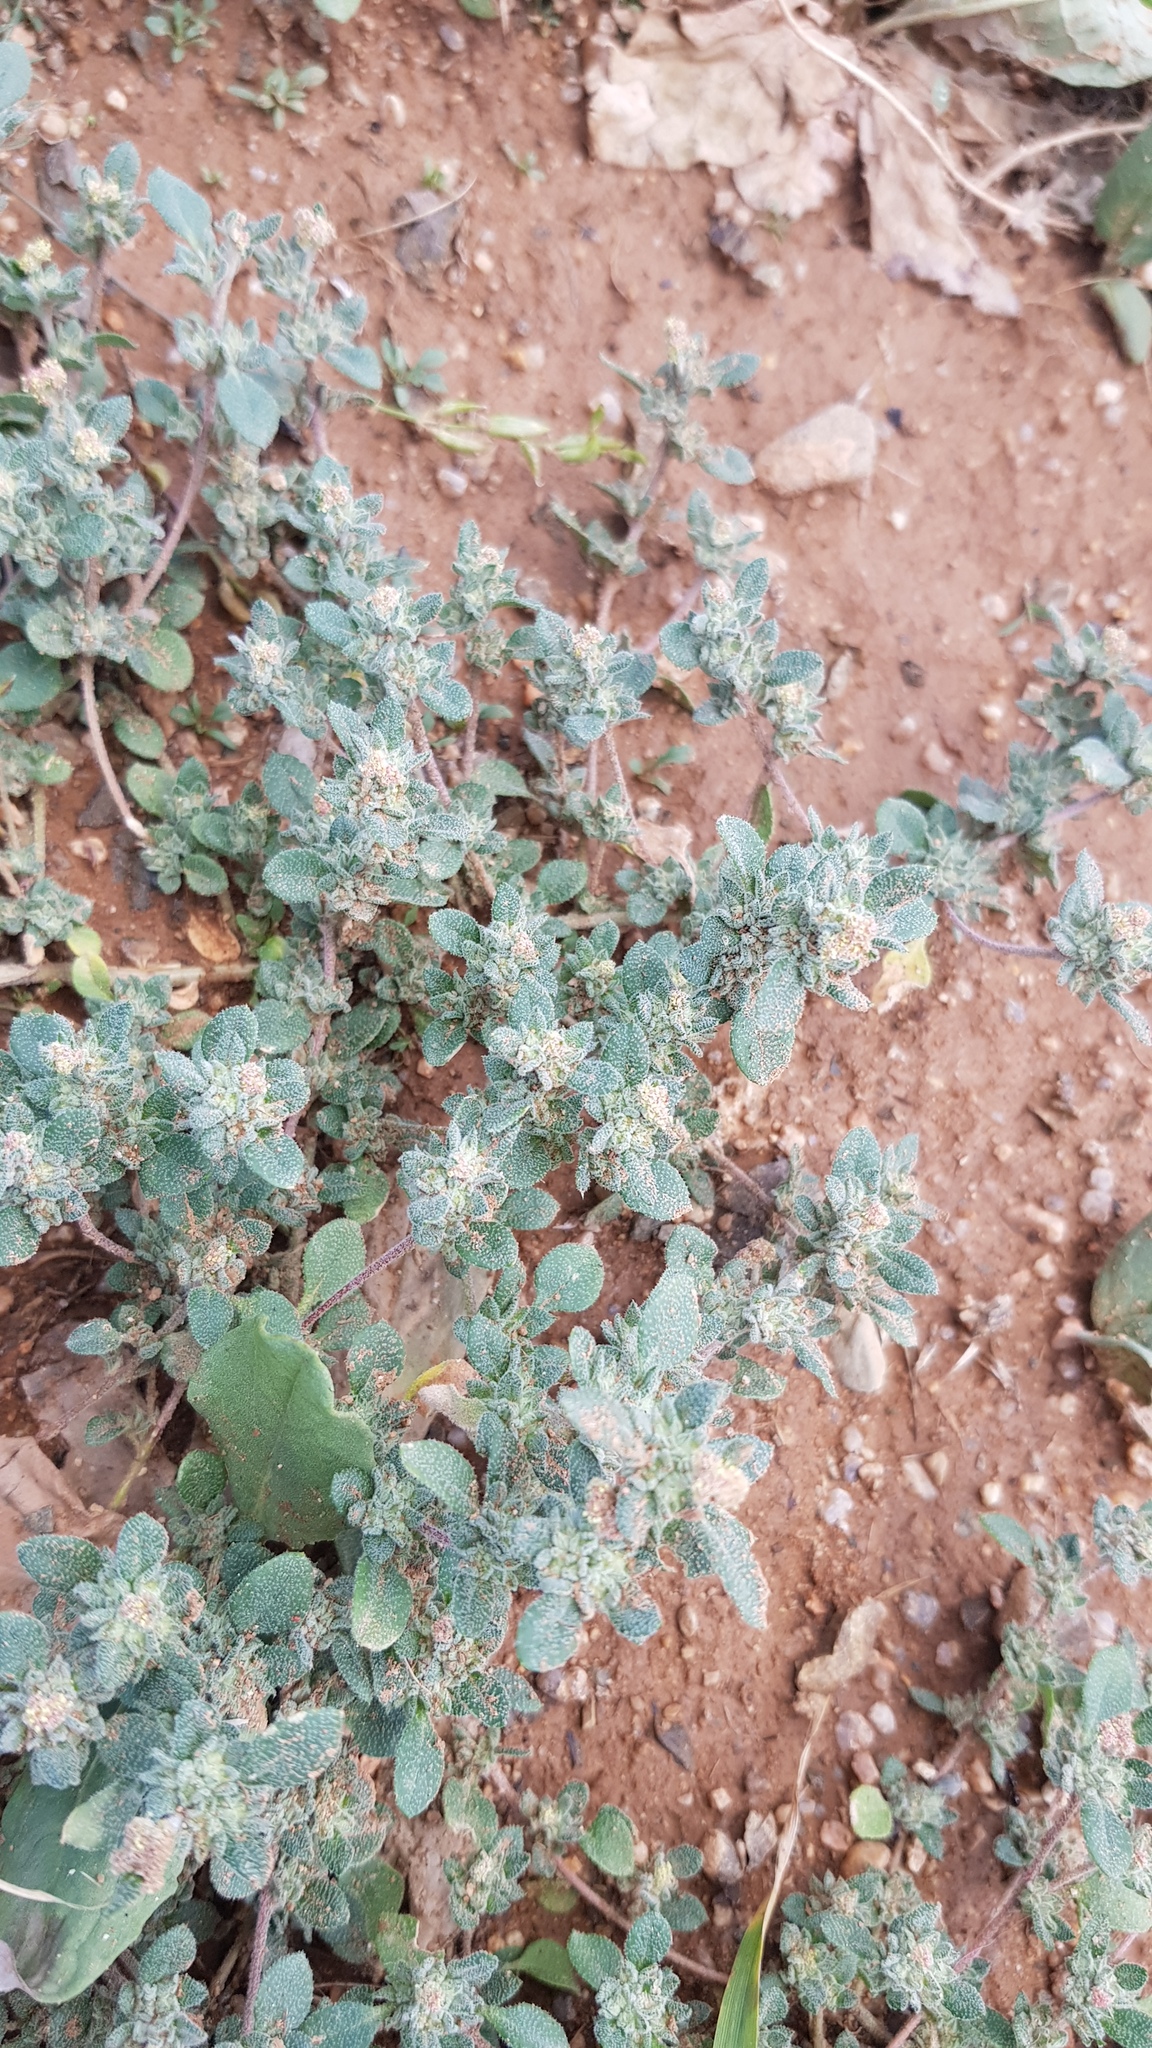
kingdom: Plantae
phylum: Tracheophyta
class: Magnoliopsida
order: Caryophyllales
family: Amaranthaceae
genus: Chenopodium
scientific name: Chenopodium acuminatum
